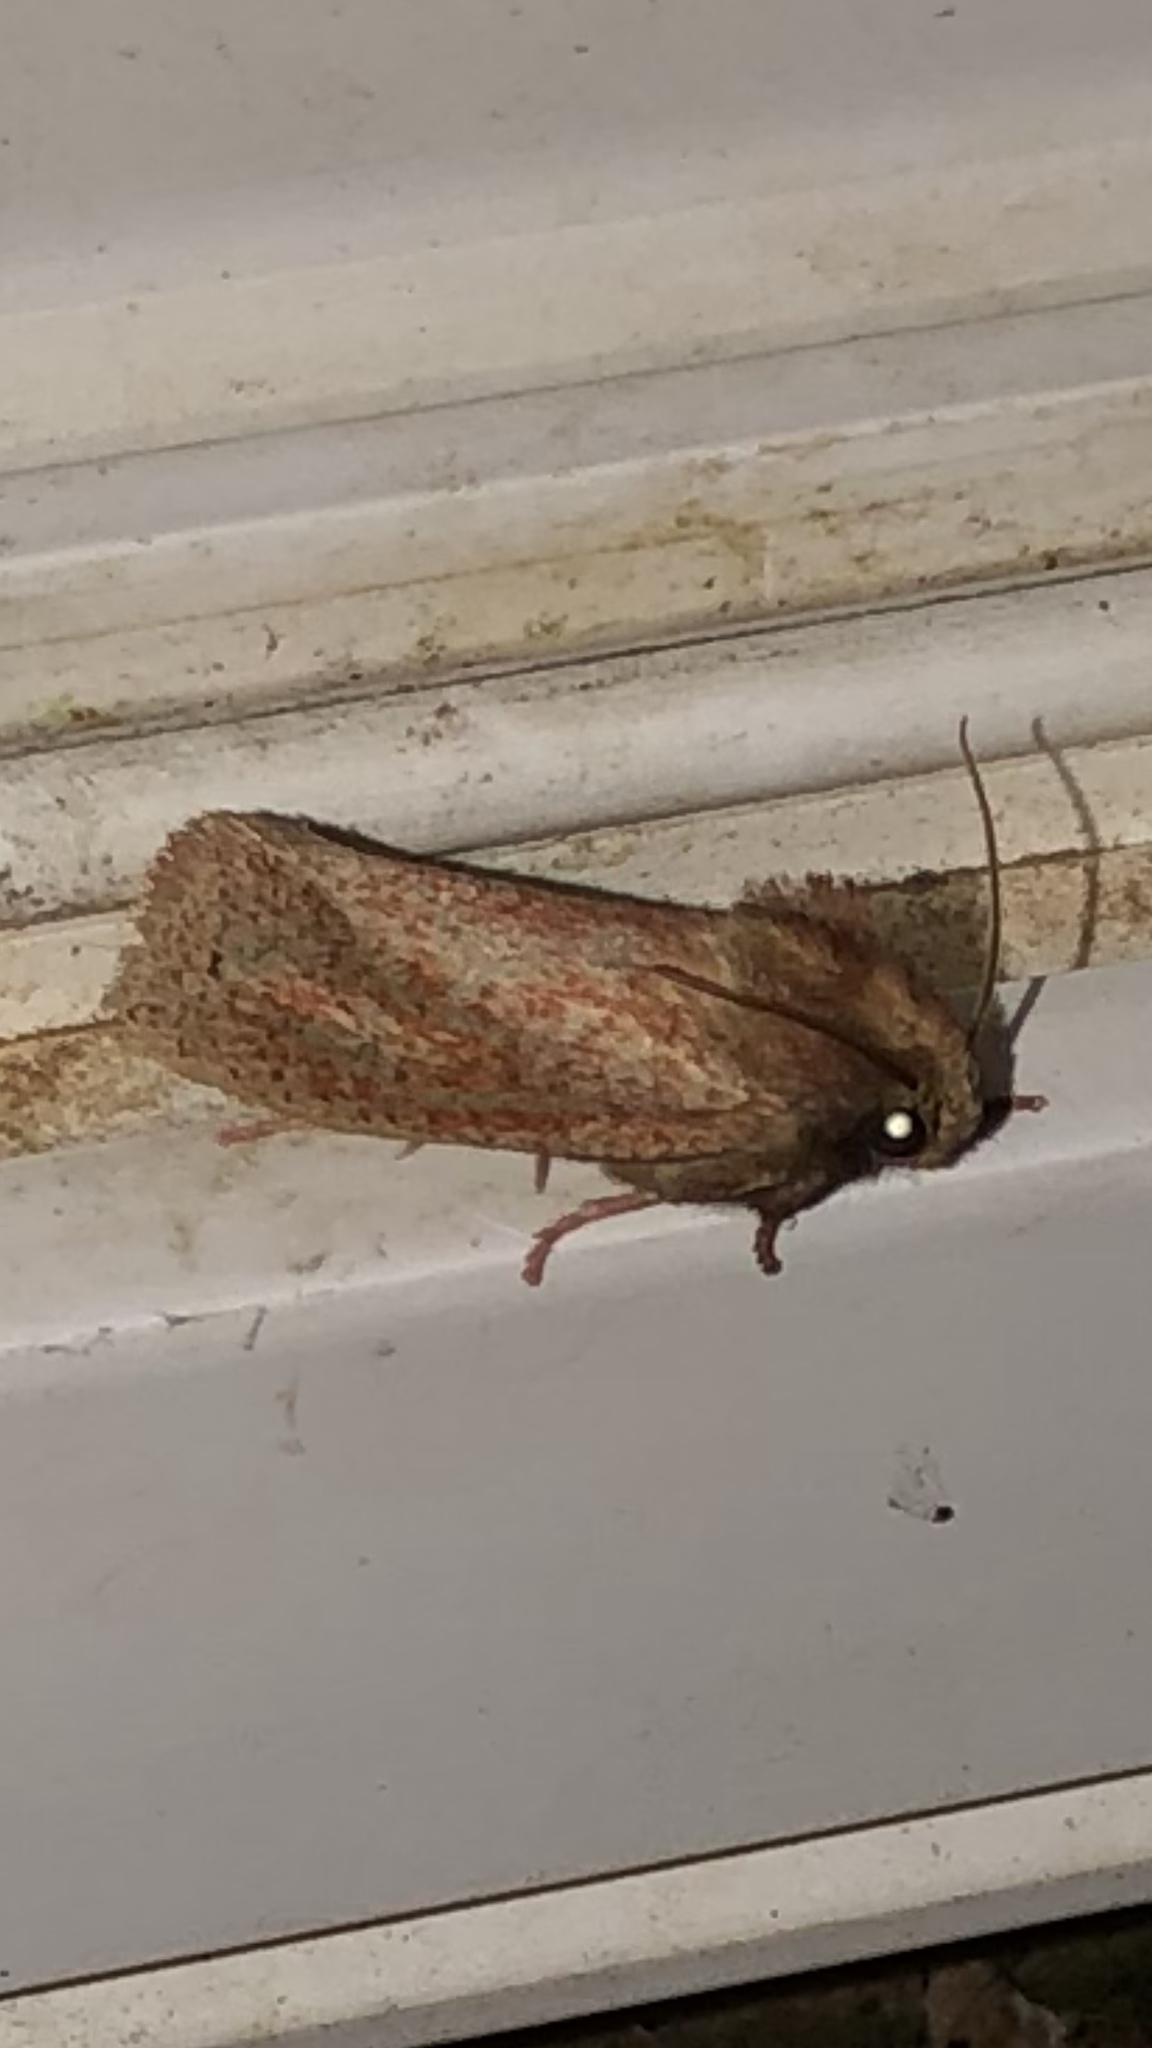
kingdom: Animalia
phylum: Arthropoda
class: Insecta
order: Lepidoptera
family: Tineidae
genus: Acrolophus
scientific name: Acrolophus plumifrontella
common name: Eastern grass tubeworm moth
